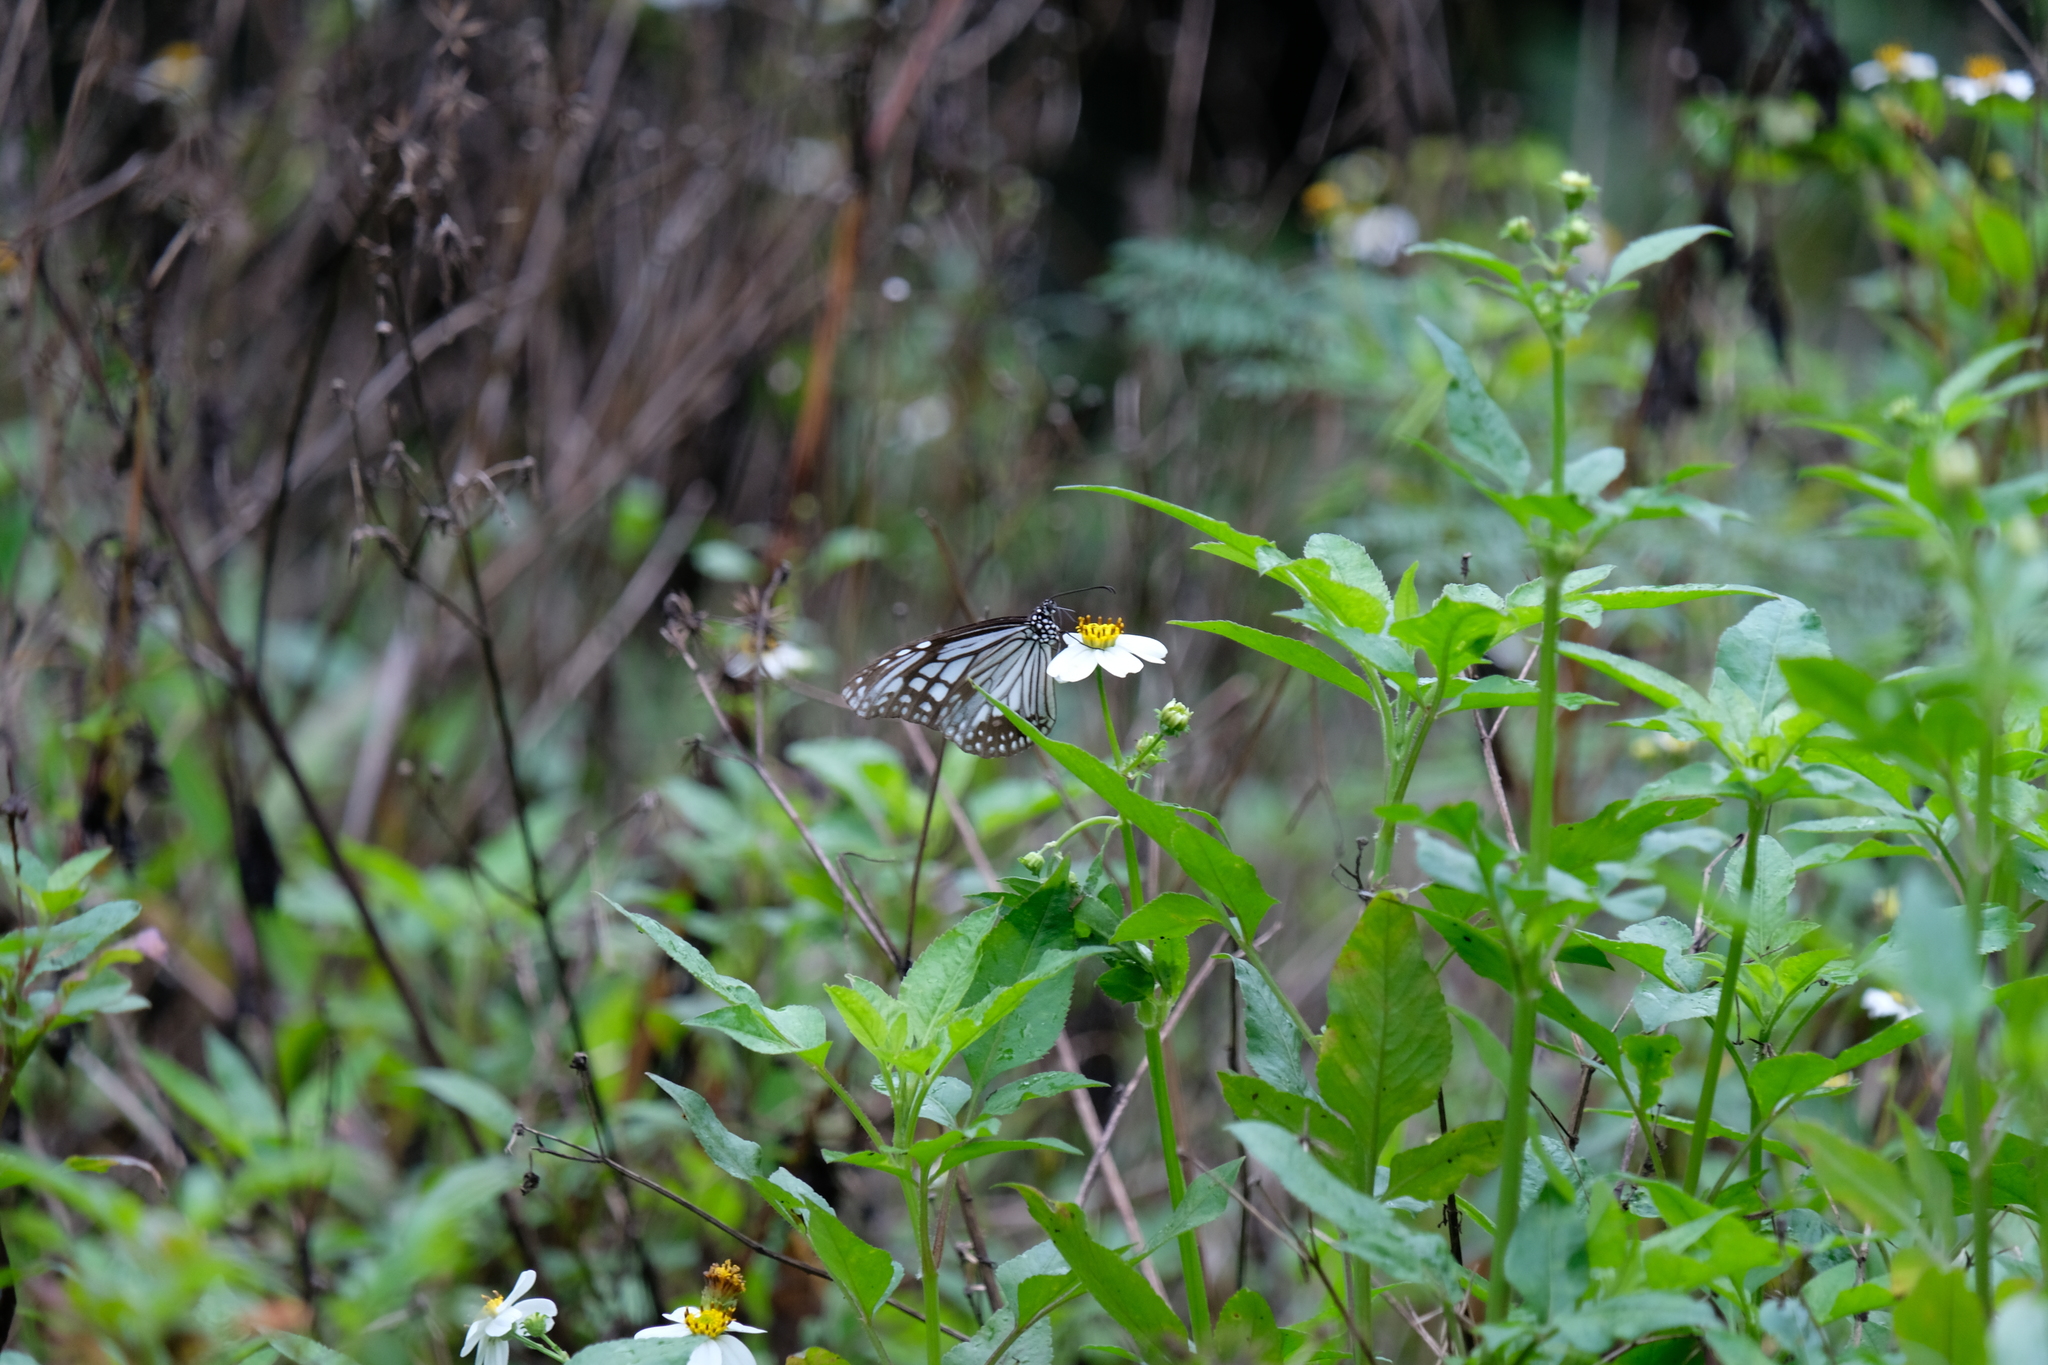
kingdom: Animalia
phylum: Arthropoda
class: Insecta
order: Lepidoptera
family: Nymphalidae
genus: Parantica
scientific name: Parantica aglea
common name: Glassy tiger
